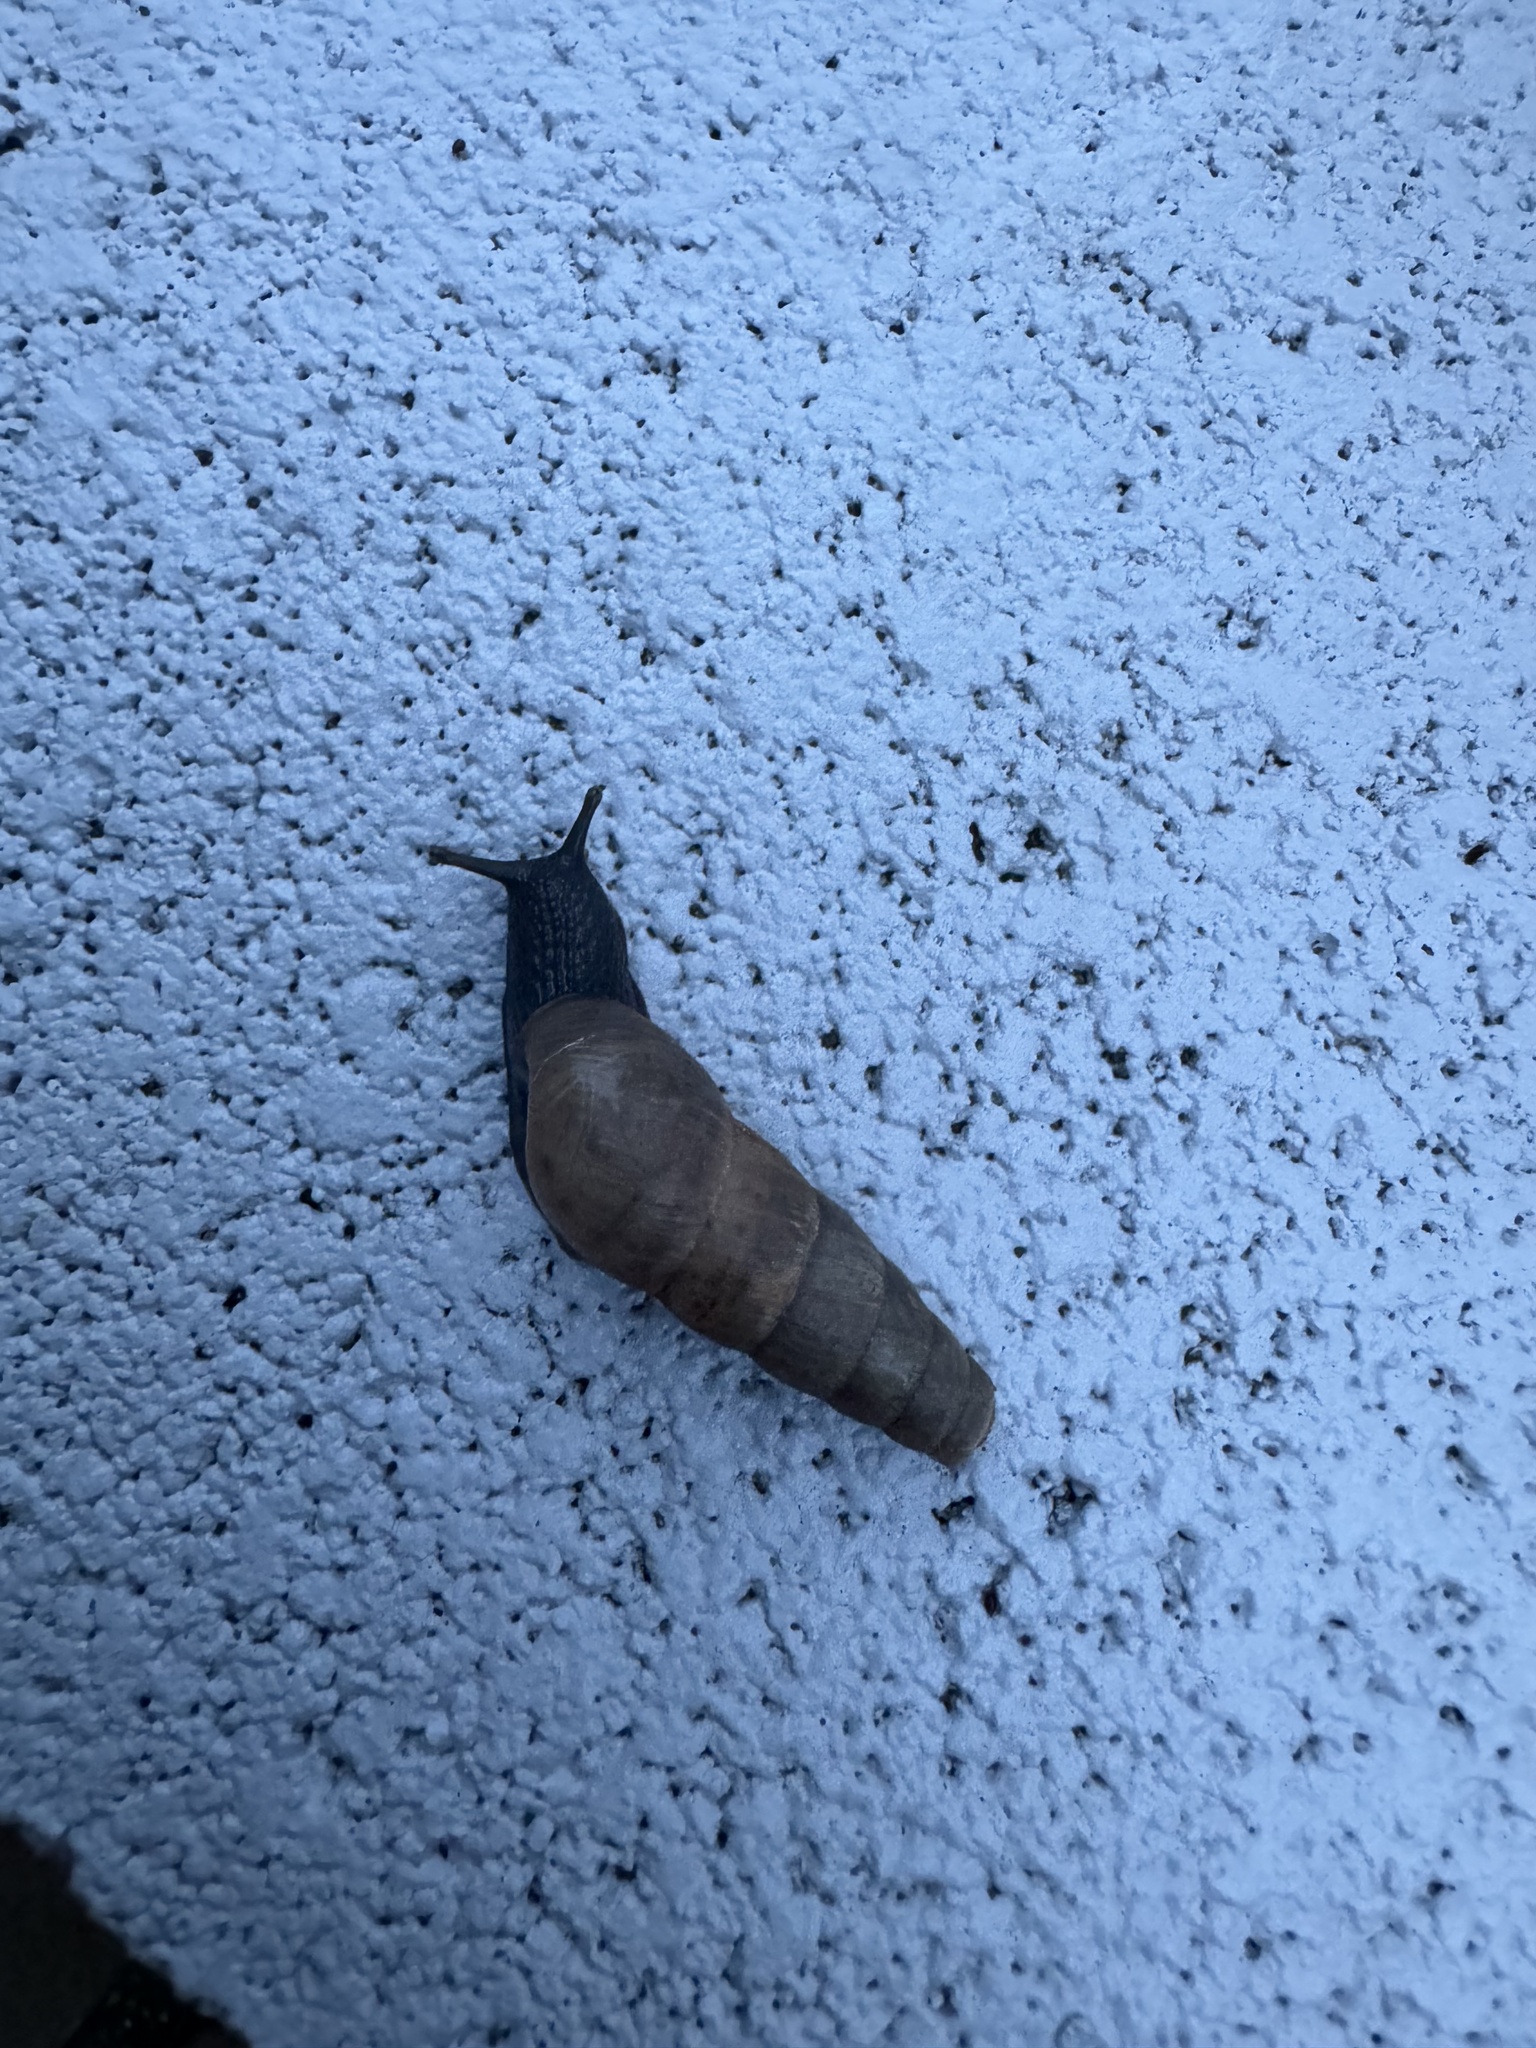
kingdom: Animalia
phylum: Mollusca
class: Gastropoda
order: Stylommatophora
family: Achatinidae
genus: Rumina
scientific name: Rumina decollata
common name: Decollate snail
